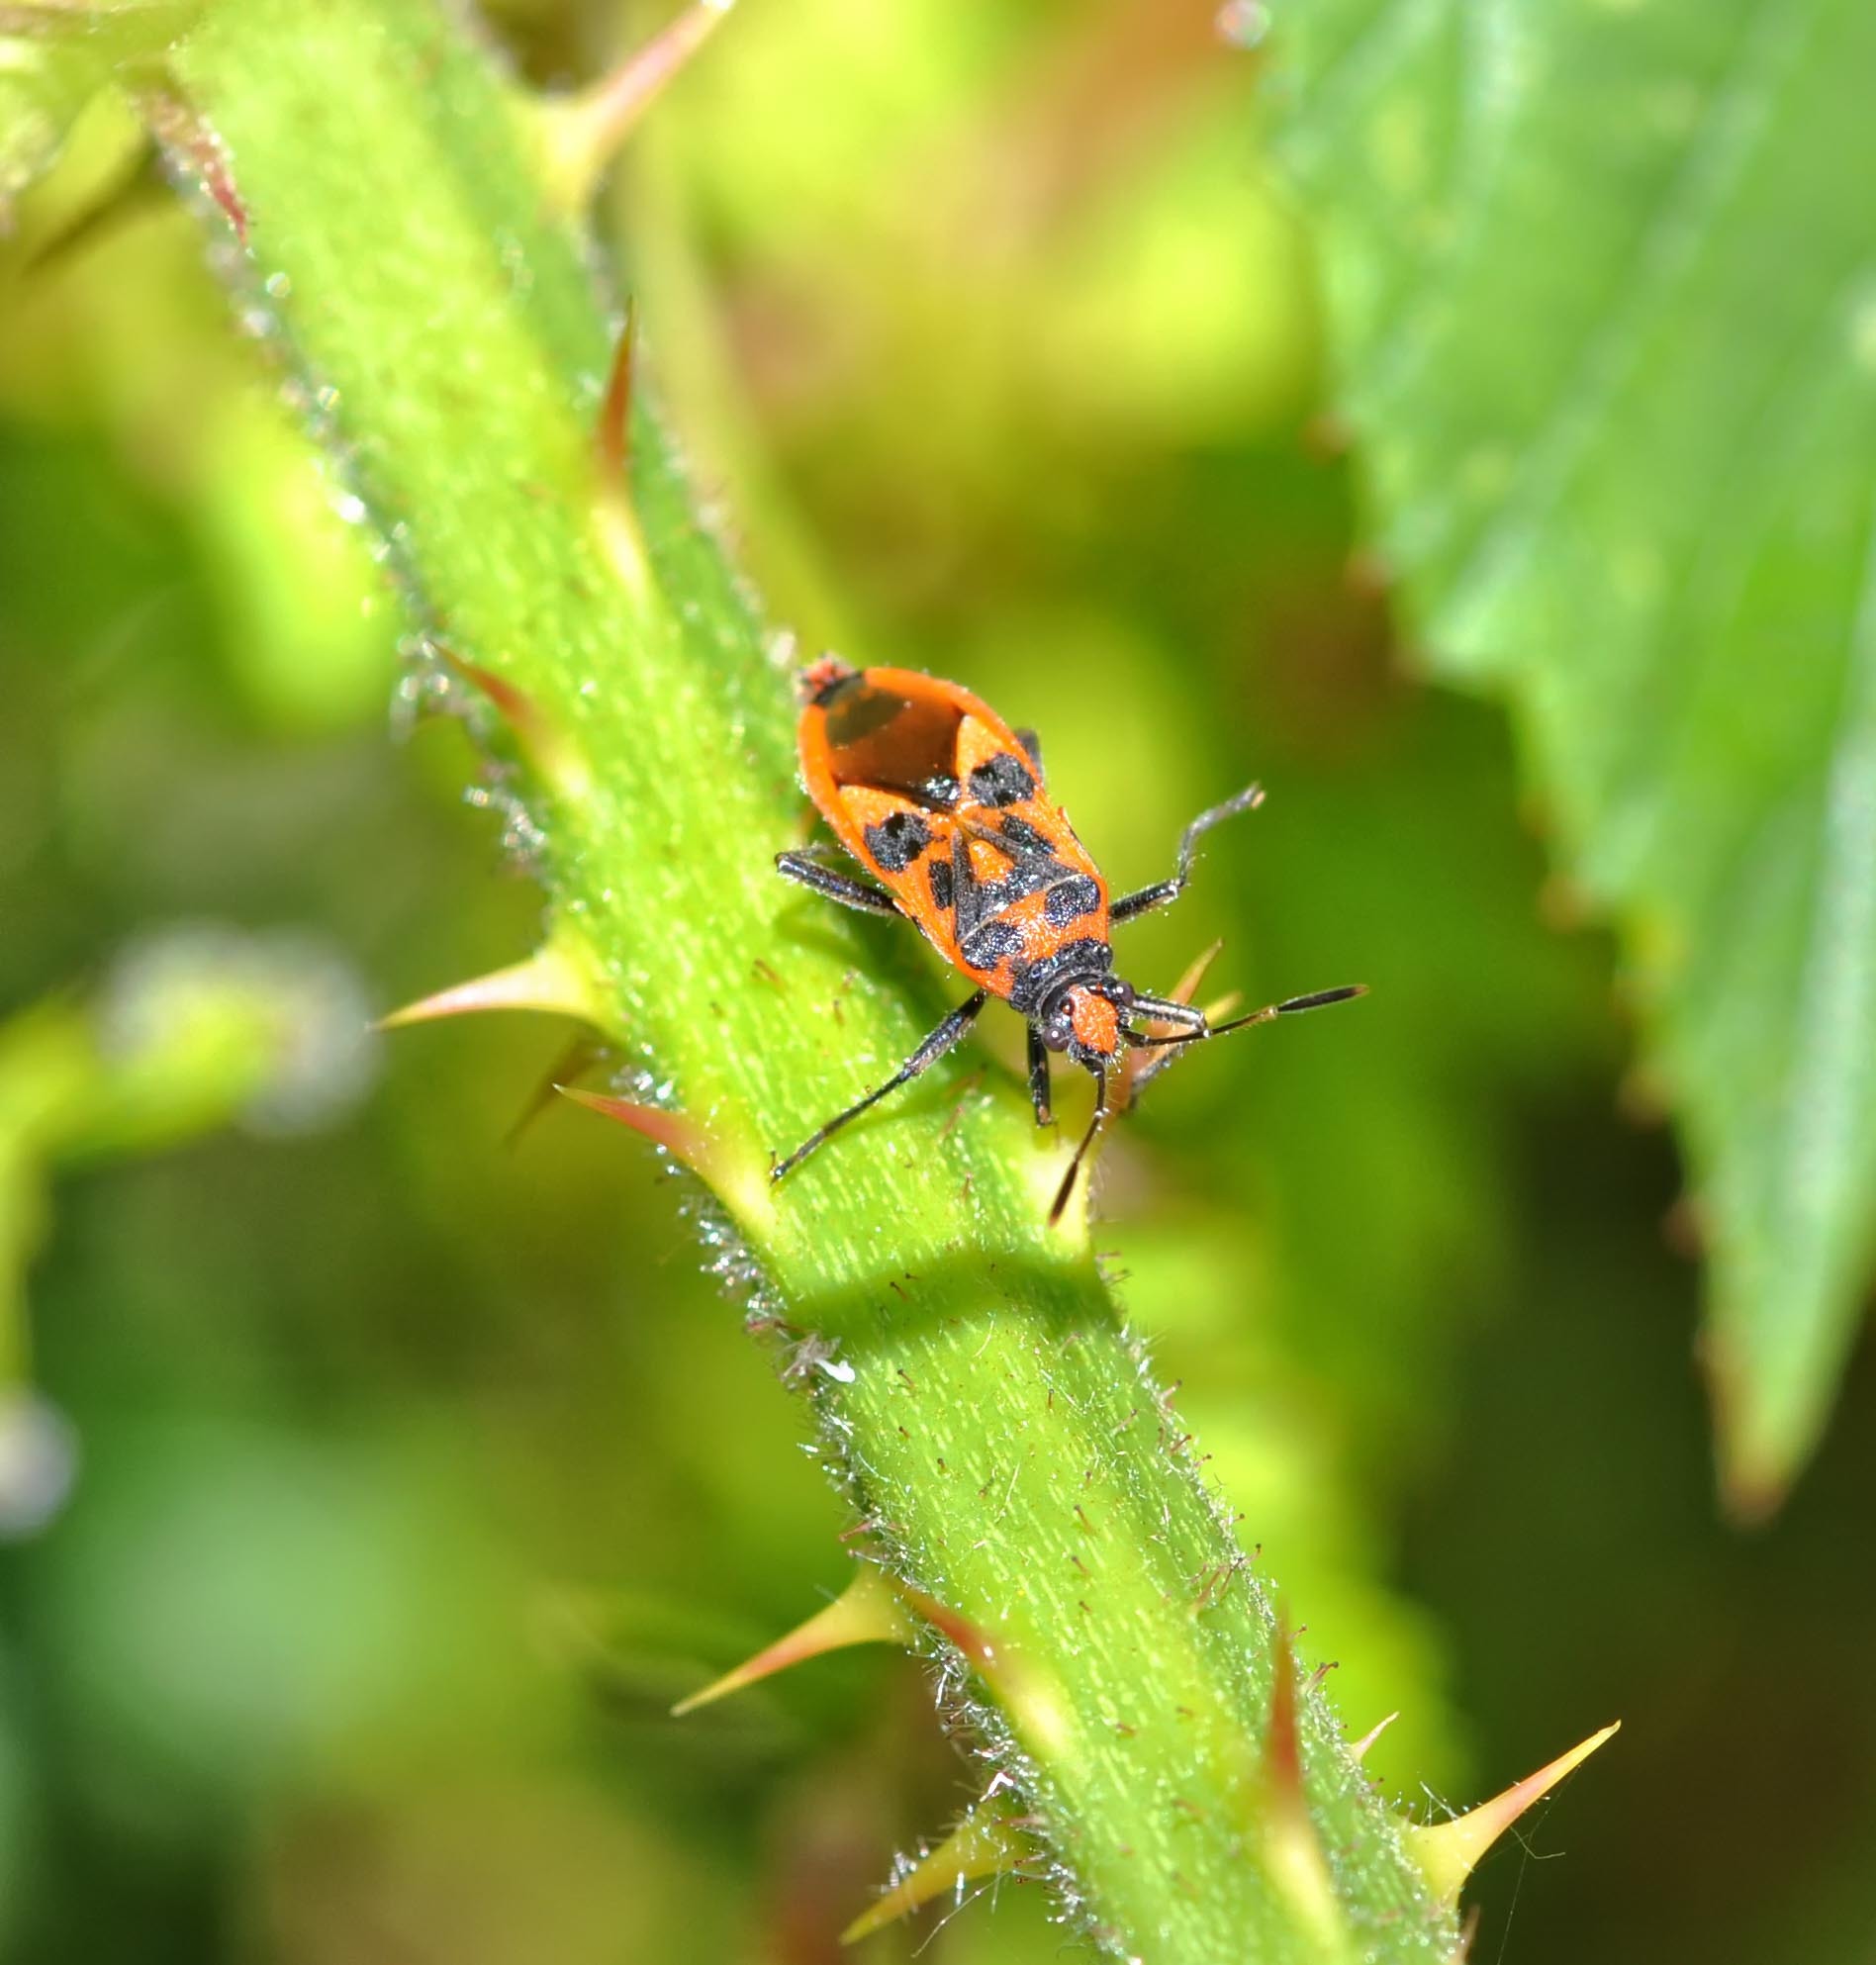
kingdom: Animalia
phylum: Arthropoda
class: Insecta
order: Hemiptera
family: Rhopalidae
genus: Corizus
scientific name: Corizus hyoscyami
